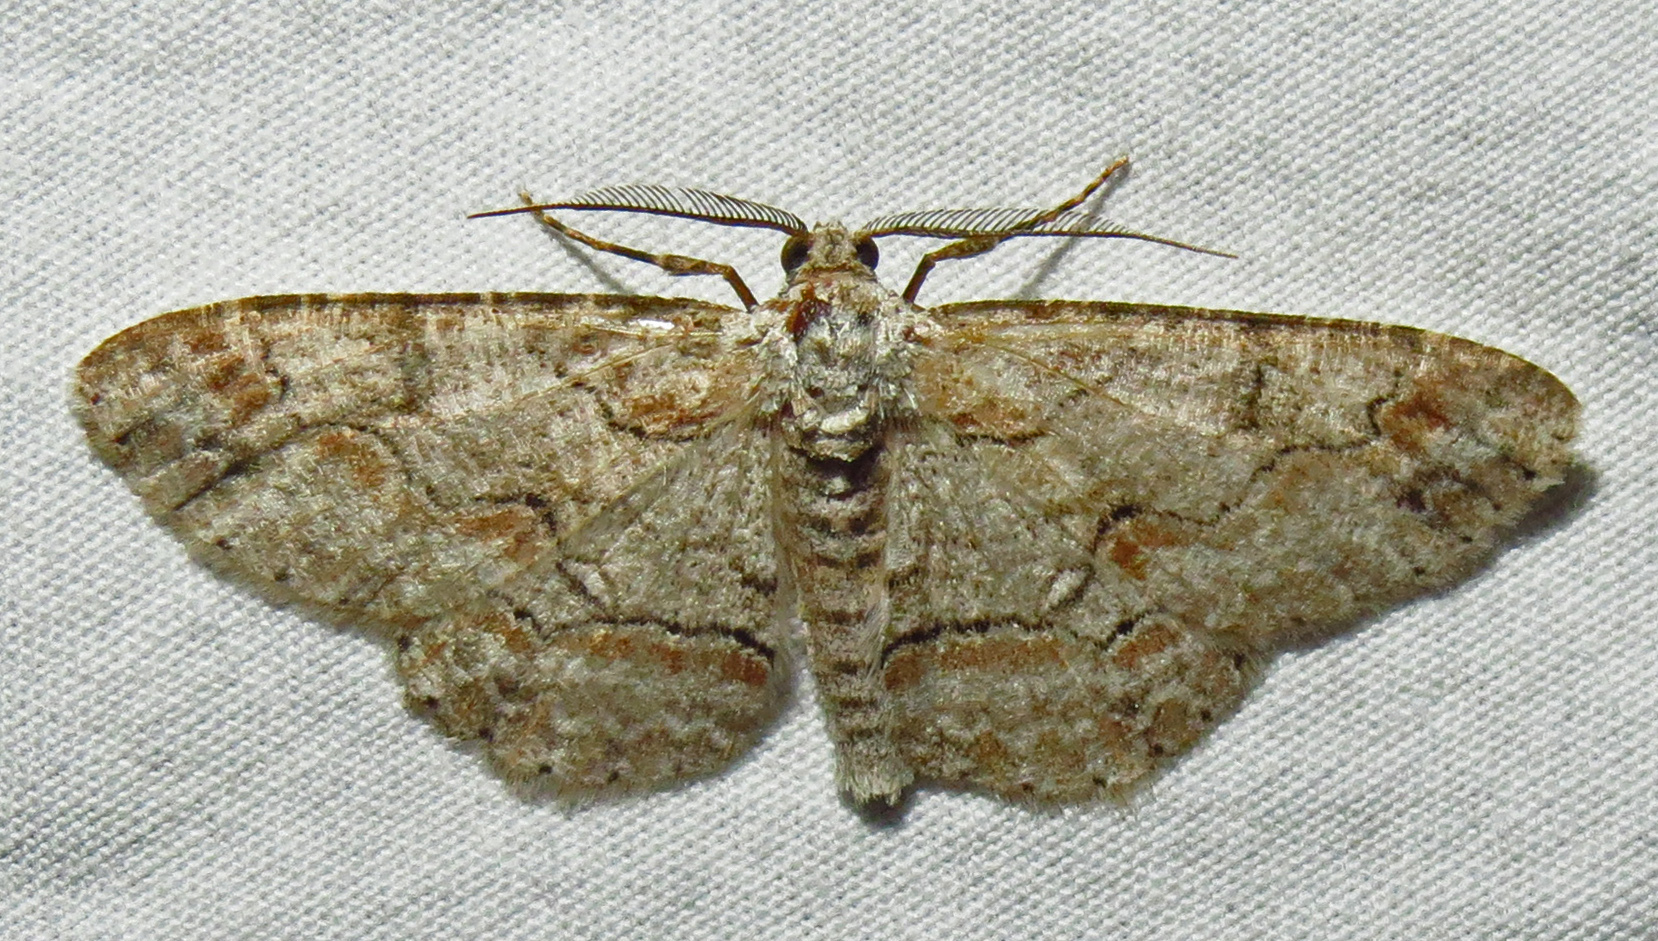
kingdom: Animalia
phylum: Arthropoda
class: Insecta
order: Lepidoptera
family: Geometridae
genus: Iridopsis
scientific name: Iridopsis defectaria
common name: Brown-shaded gray
